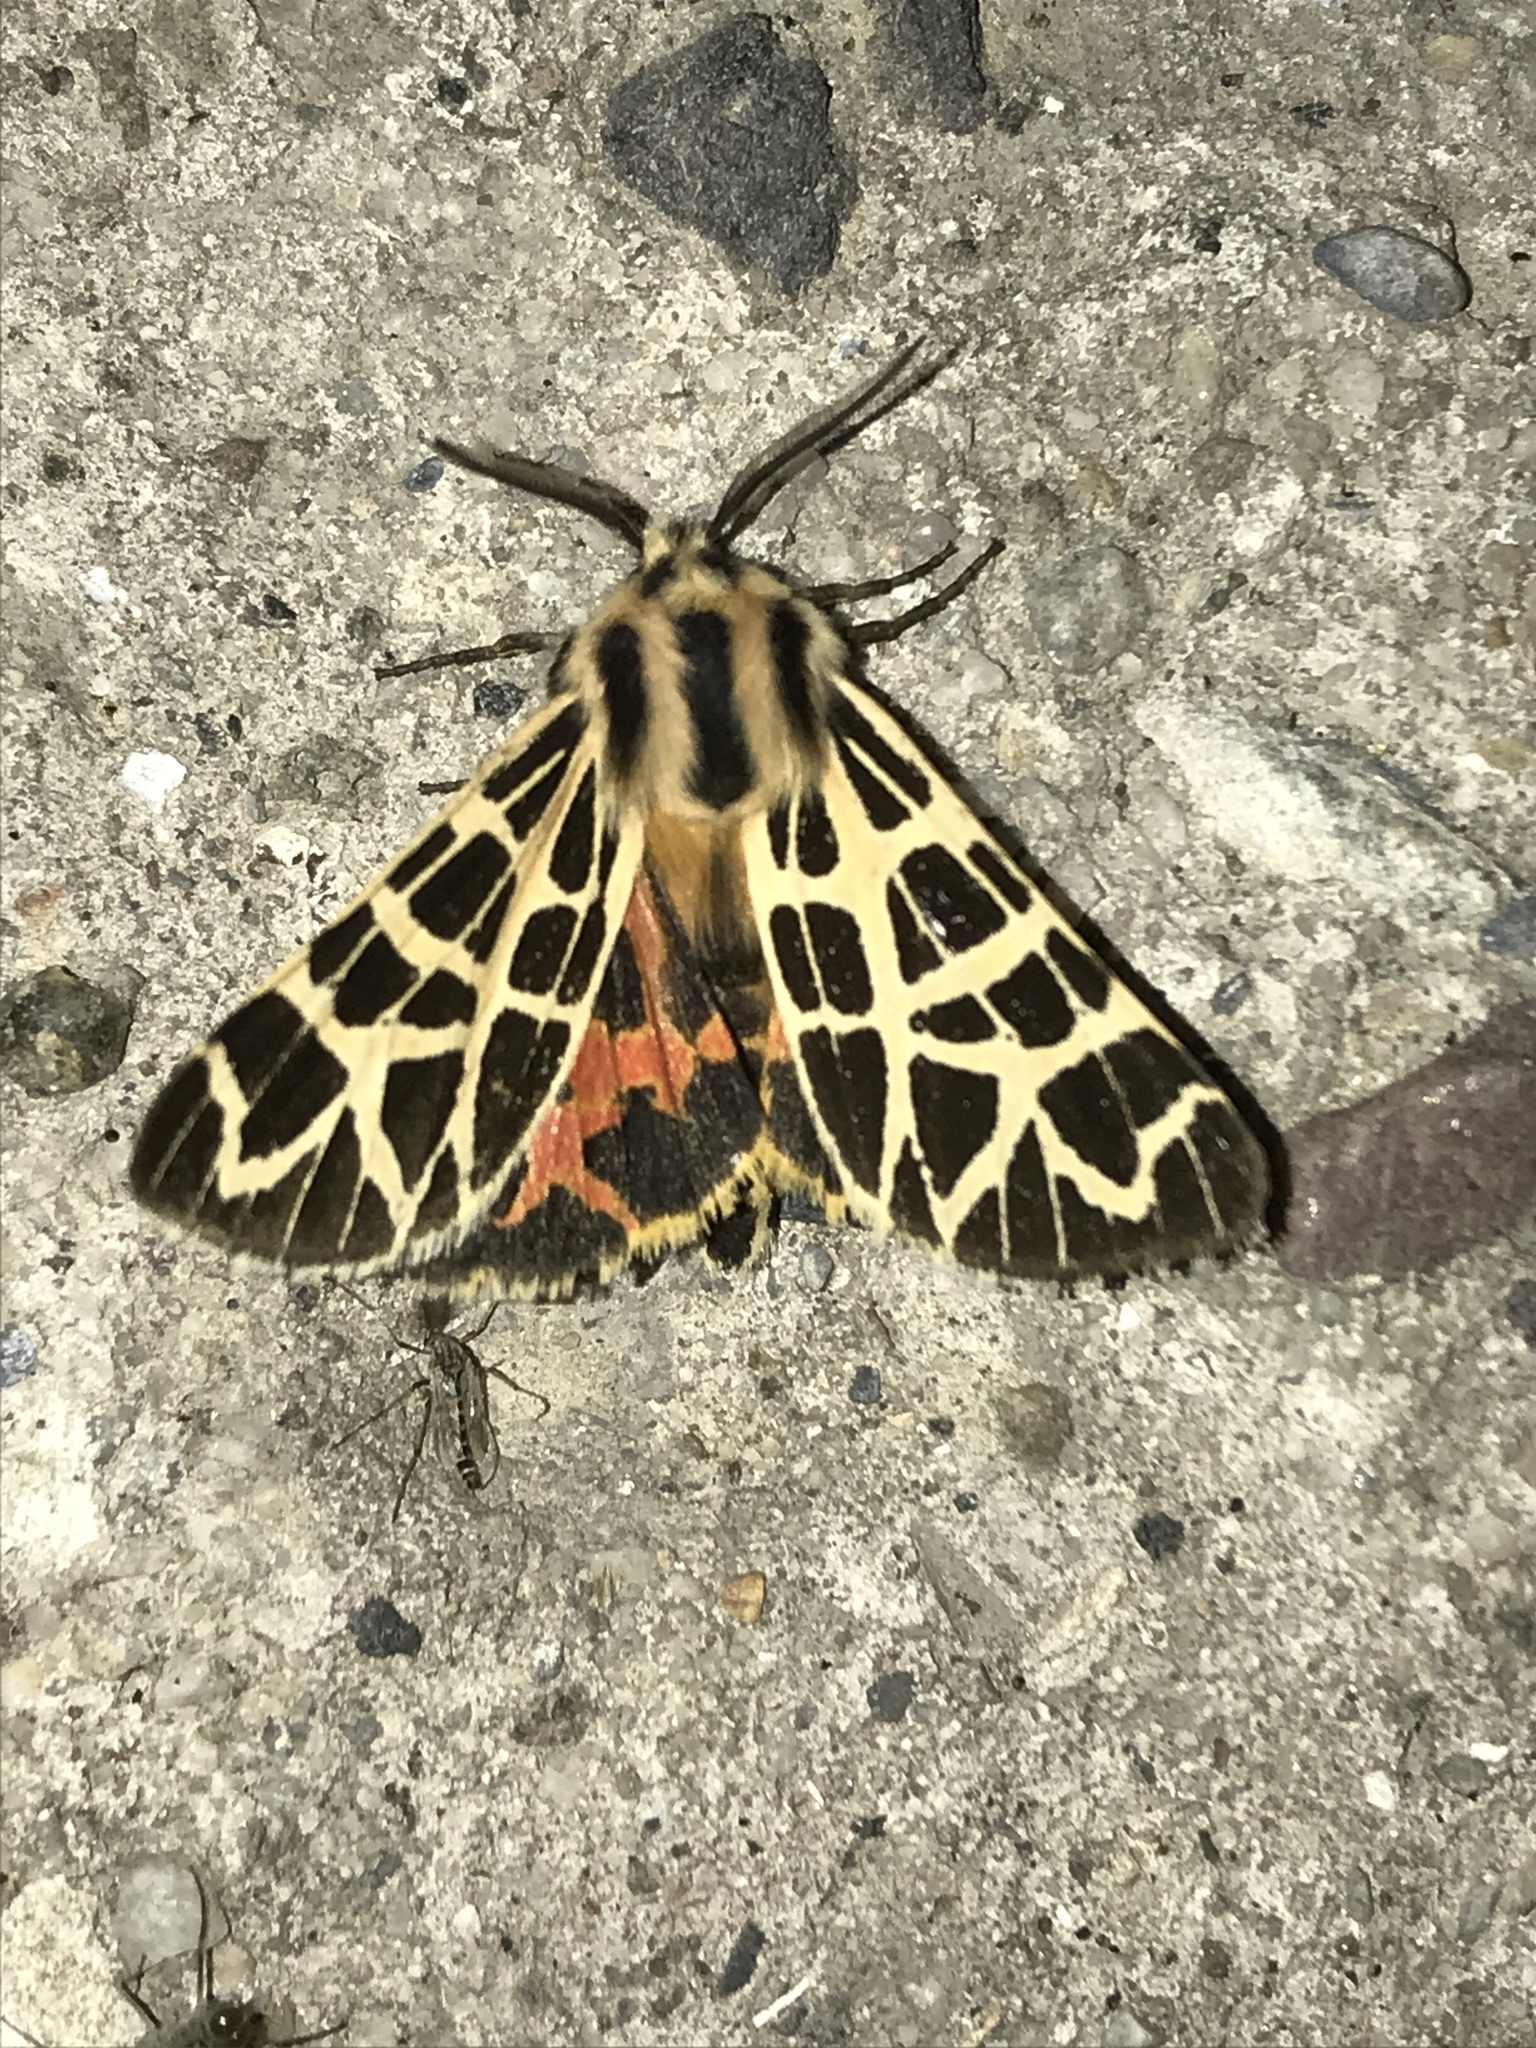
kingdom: Animalia
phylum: Arthropoda
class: Insecta
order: Lepidoptera
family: Erebidae
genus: Apantesis
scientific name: Apantesis
